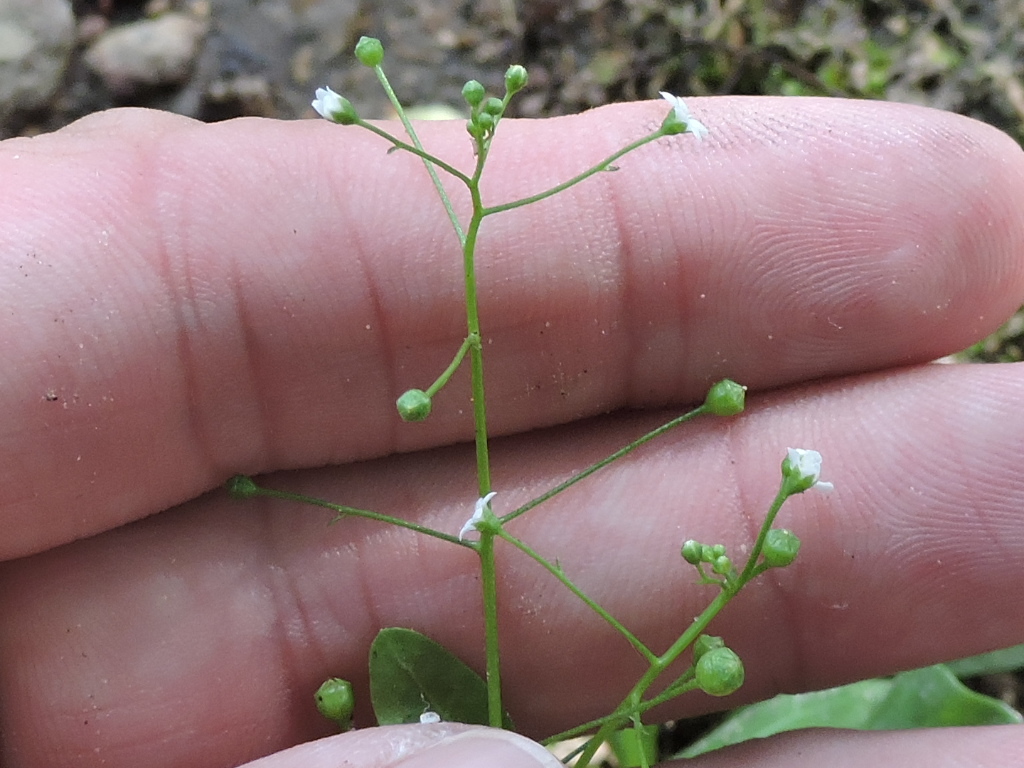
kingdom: Plantae
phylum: Tracheophyta
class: Magnoliopsida
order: Ericales
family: Primulaceae
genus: Samolus
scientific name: Samolus parviflorus
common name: False water pimpernel
